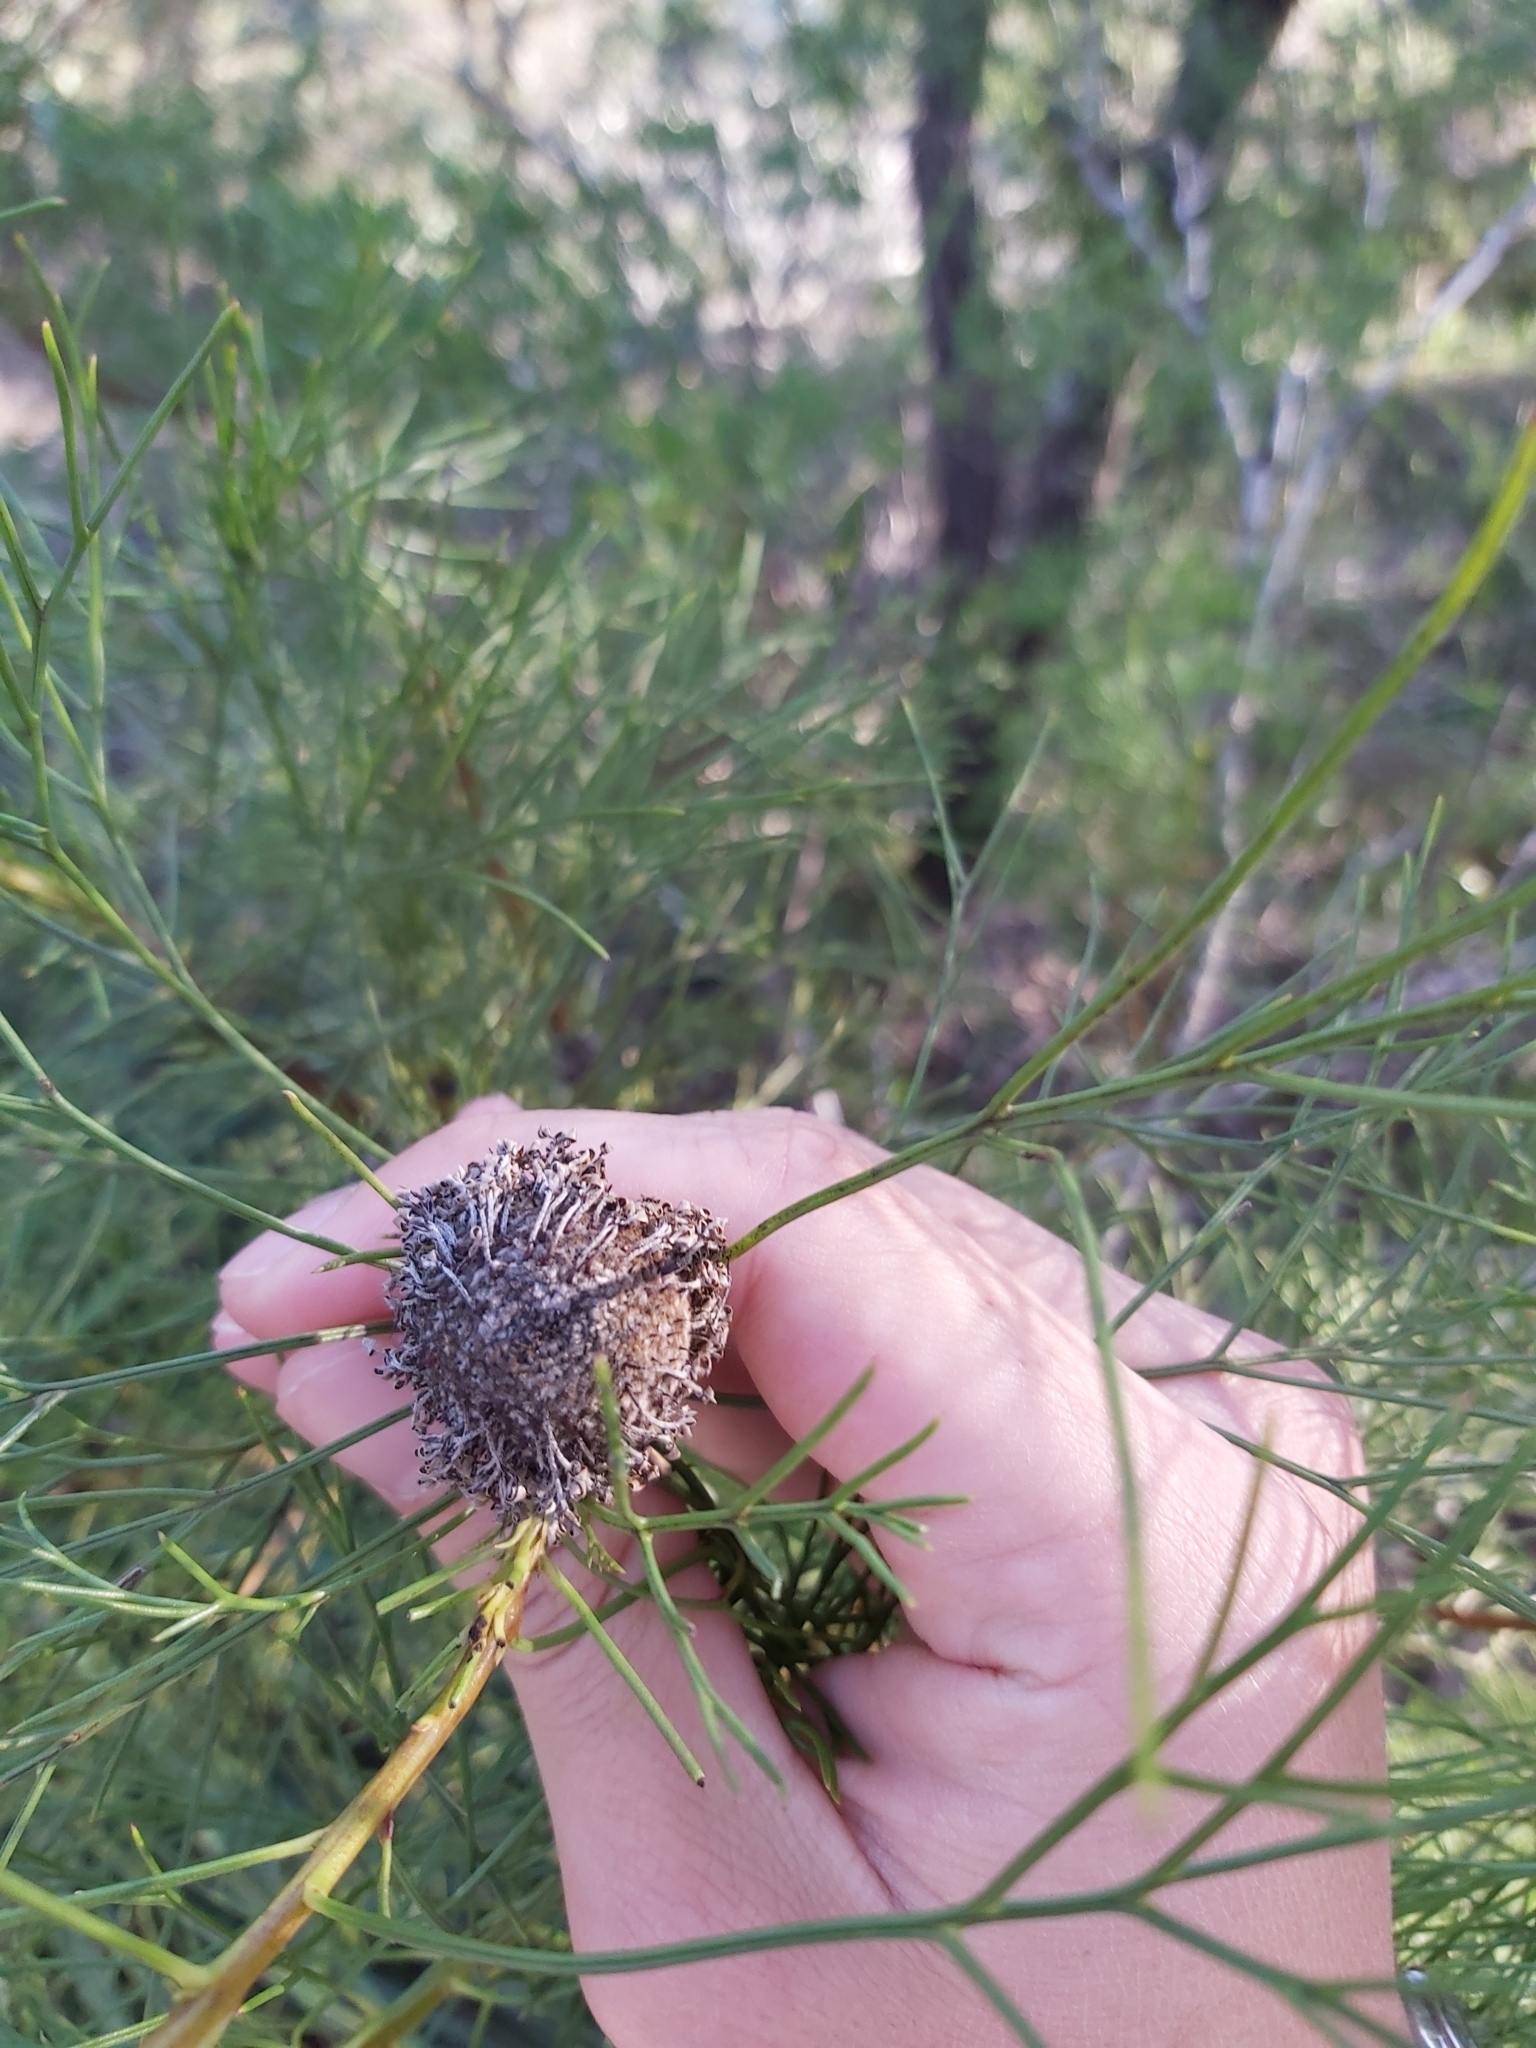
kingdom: Plantae
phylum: Tracheophyta
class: Magnoliopsida
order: Proteales
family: Proteaceae
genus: Isopogon
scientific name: Isopogon anethifolius
